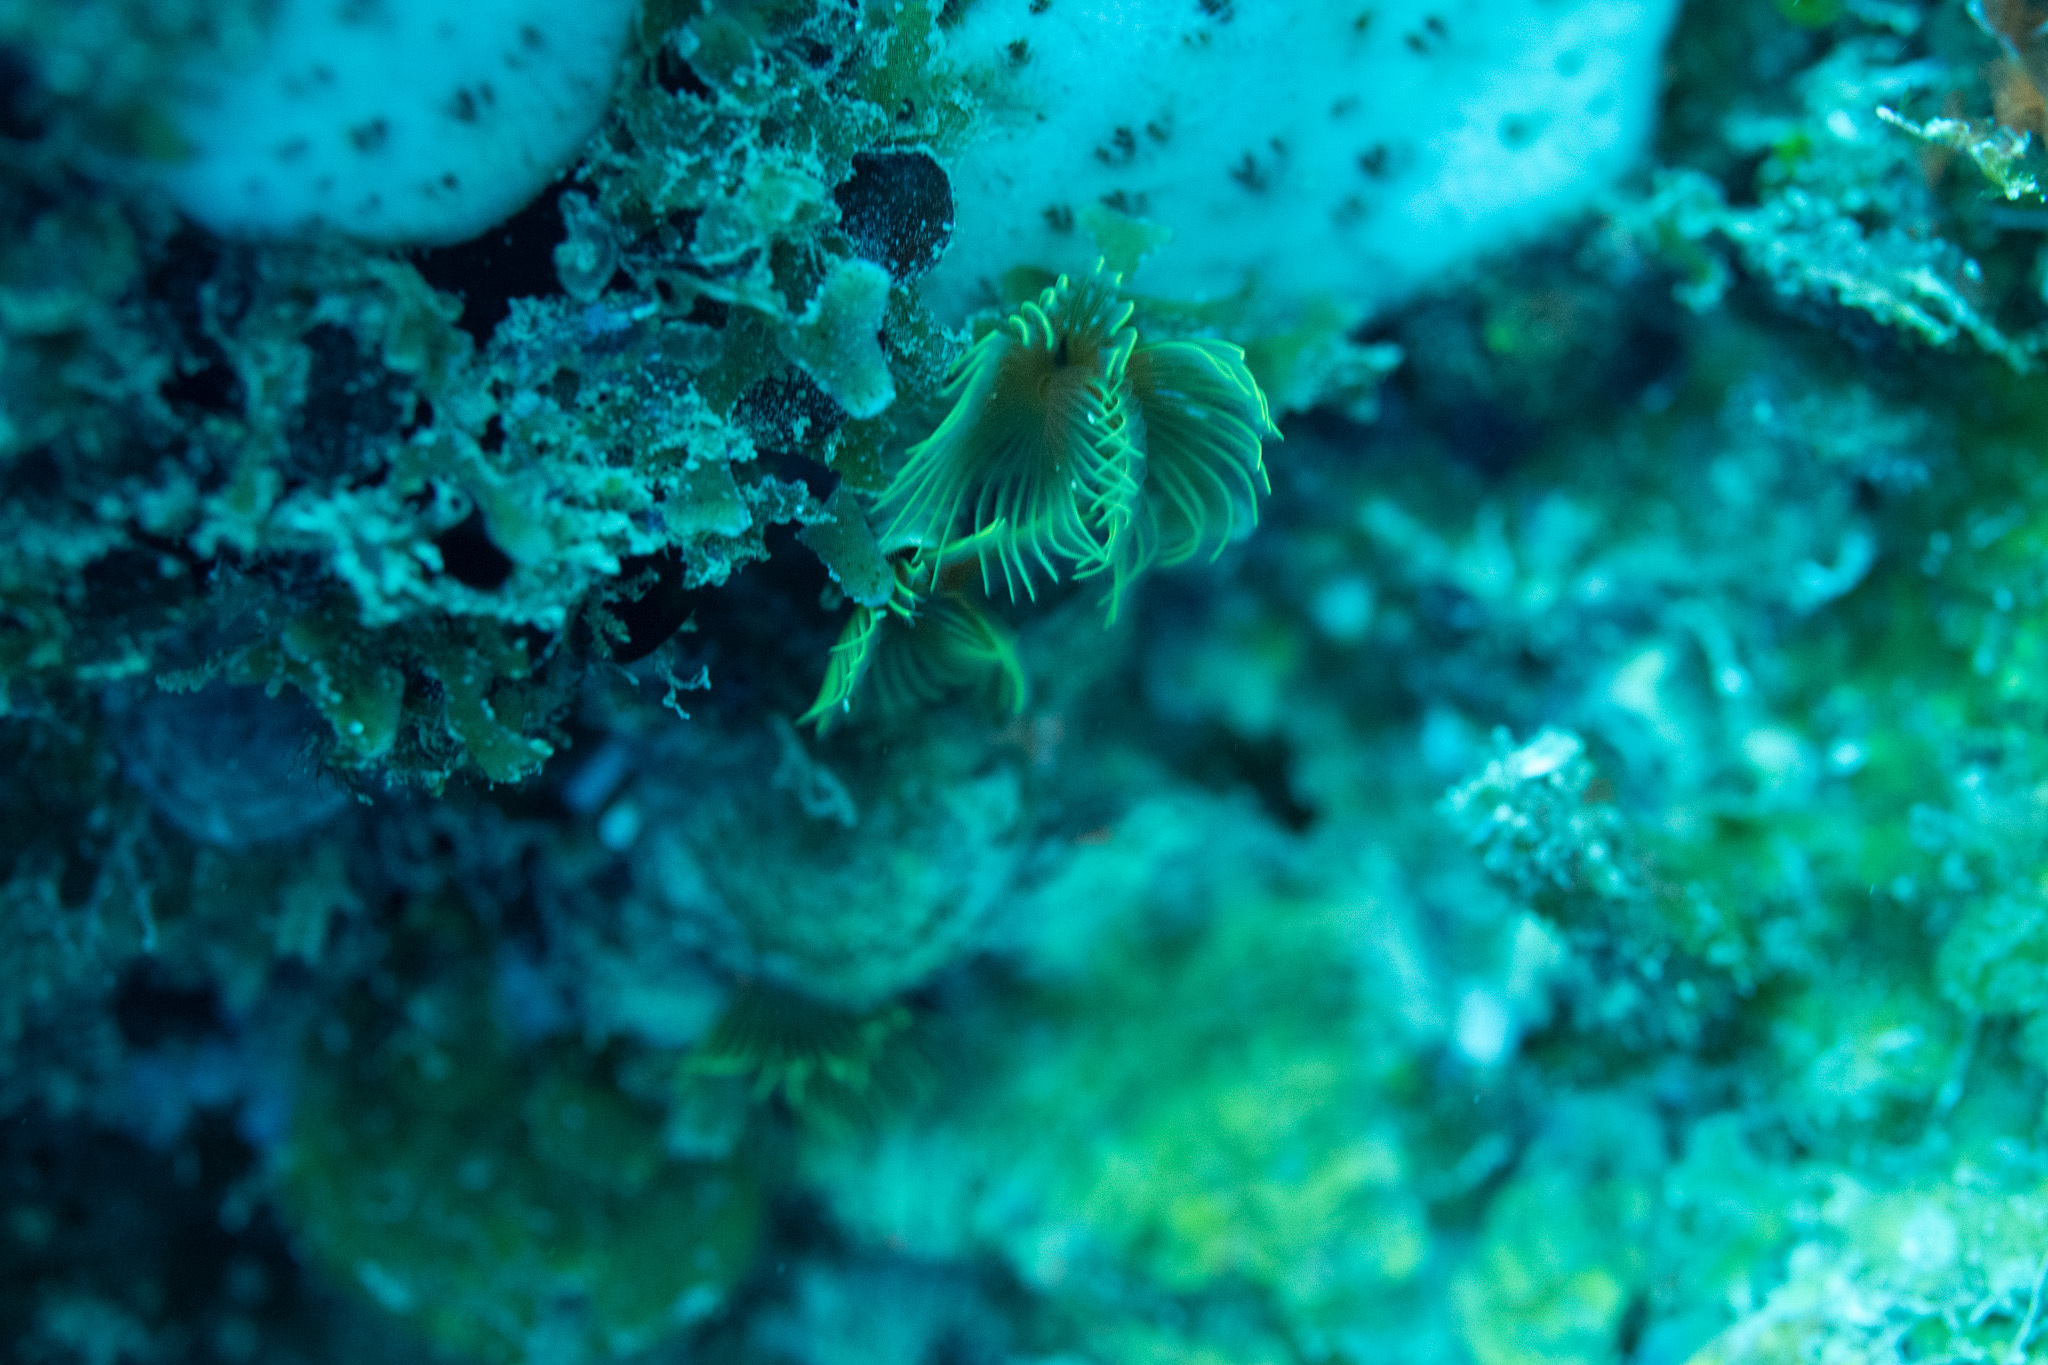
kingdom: Animalia
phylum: Annelida
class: Polychaeta
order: Sabellida
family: Serpulidae
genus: Pomatostegus
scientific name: Pomatostegus stellatus
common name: Star tubeworm
